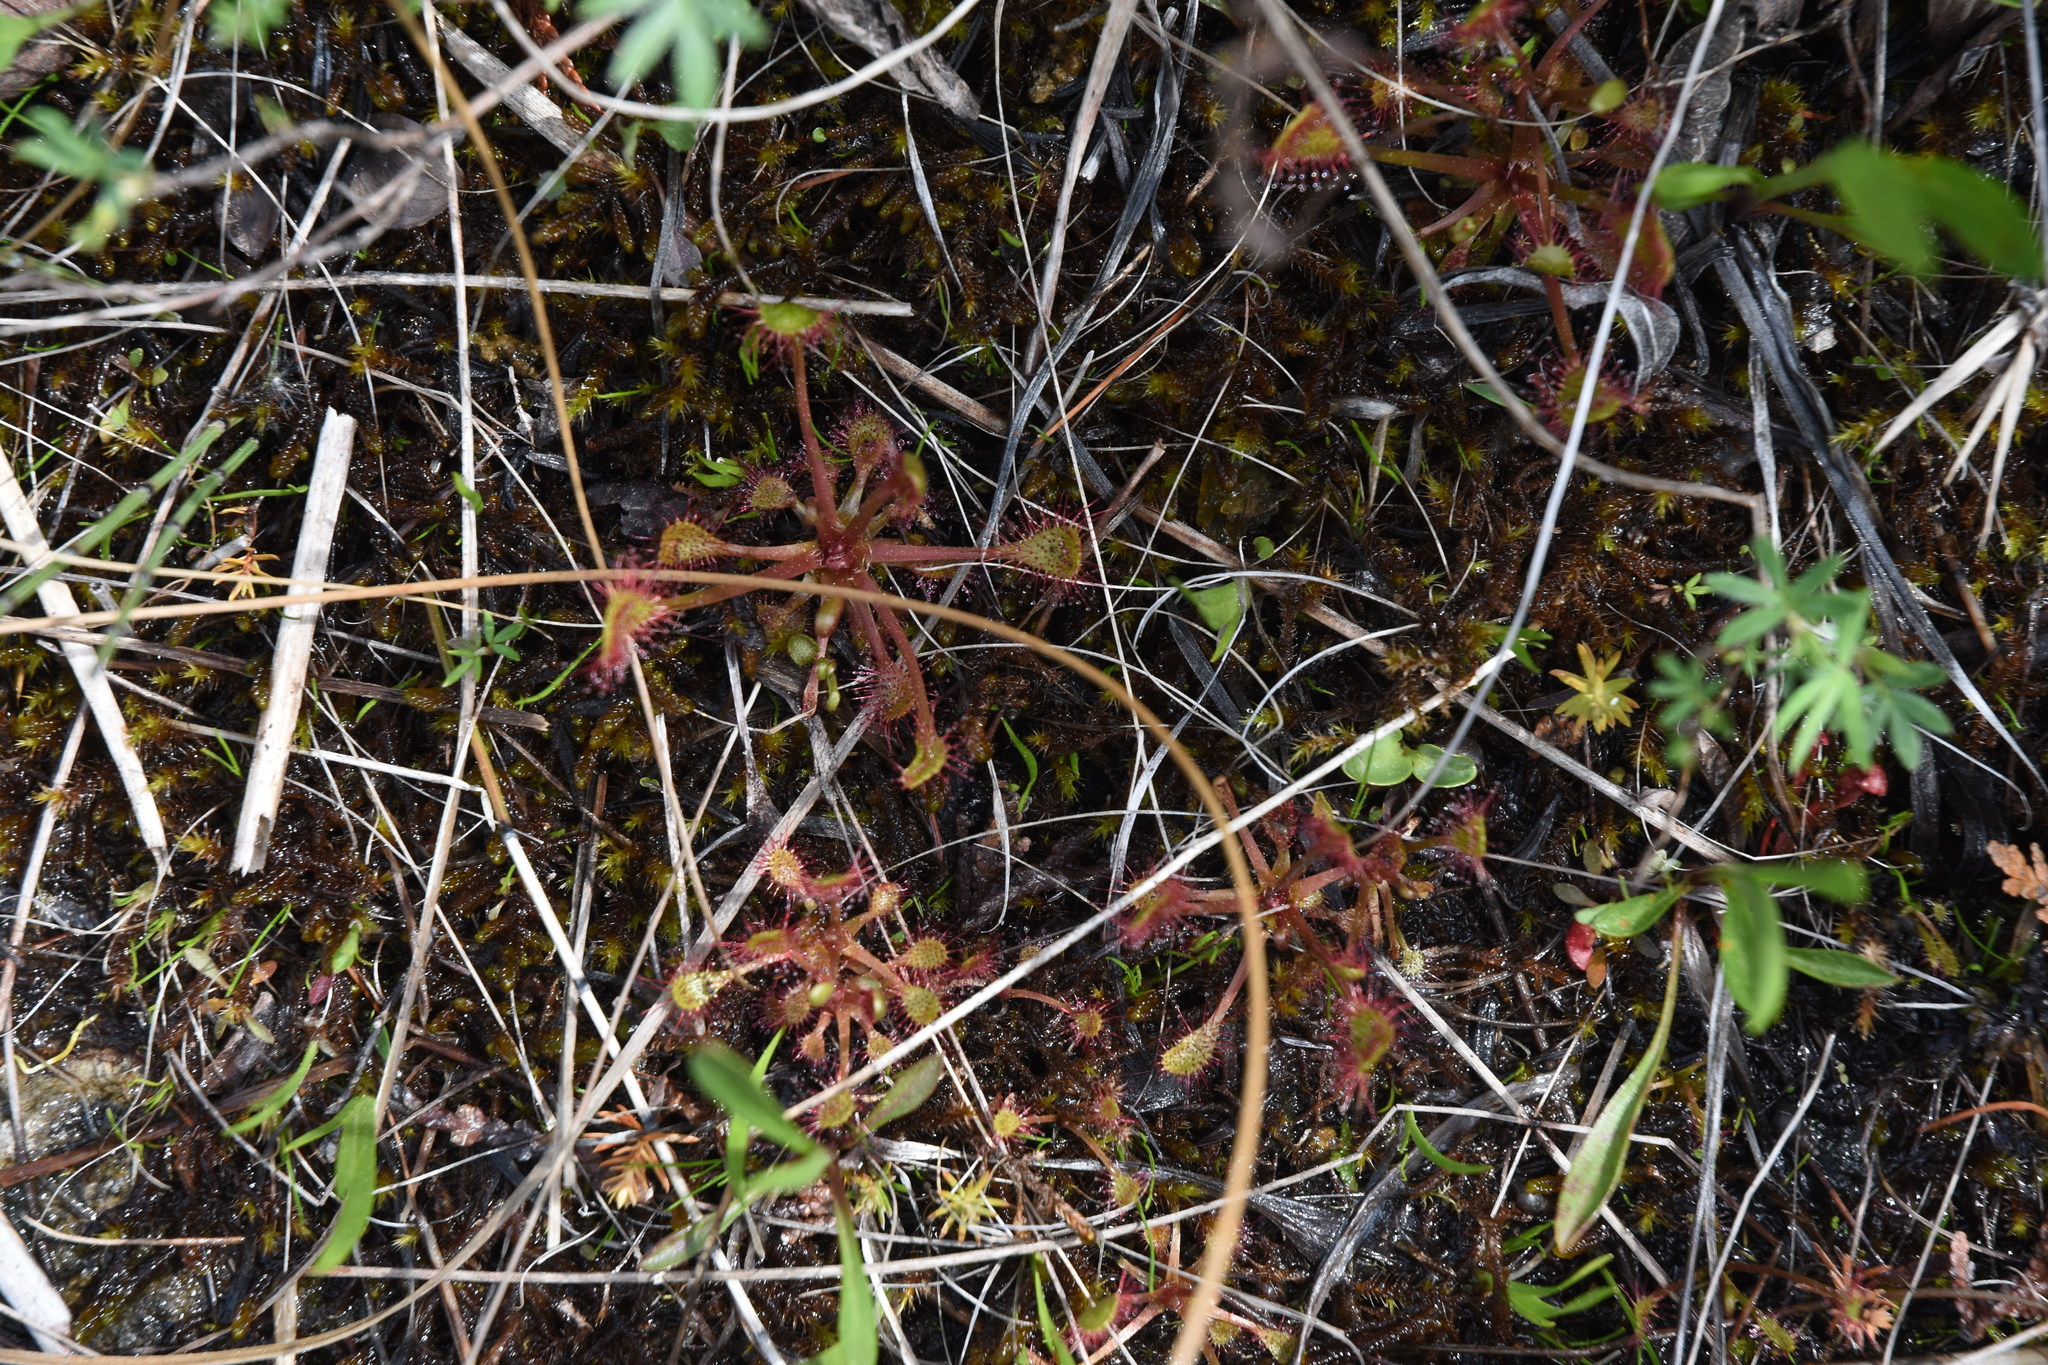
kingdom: Plantae
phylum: Tracheophyta
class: Magnoliopsida
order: Caryophyllales
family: Droseraceae
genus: Drosera
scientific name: Drosera anglica
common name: Great sundew
